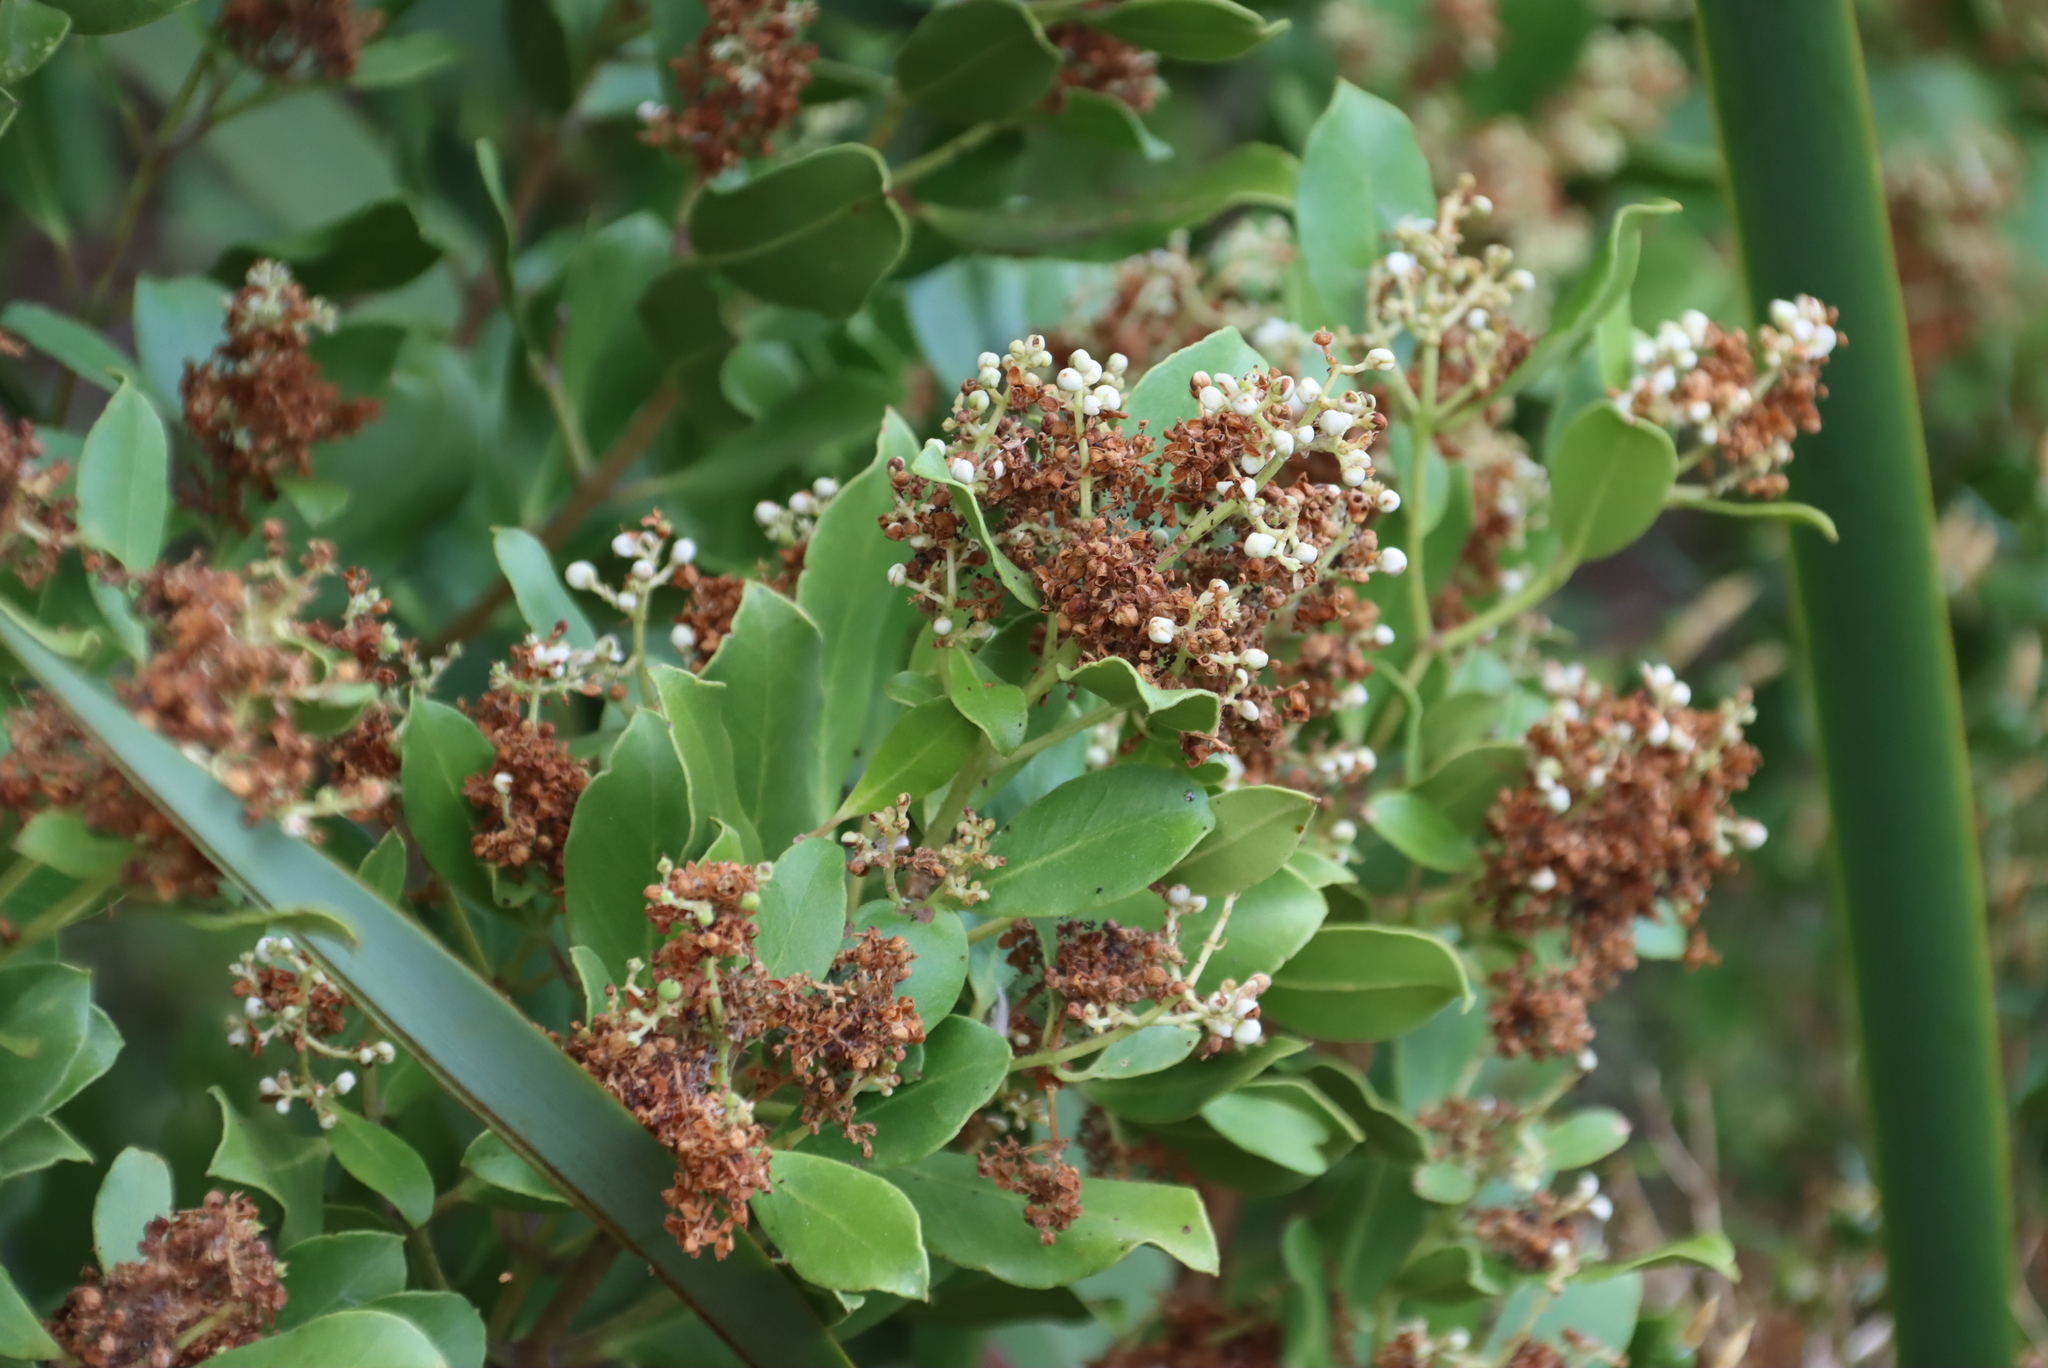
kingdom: Plantae
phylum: Tracheophyta
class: Magnoliopsida
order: Lamiales
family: Oleaceae
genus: Olea
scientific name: Olea capensis
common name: Black ironwood
